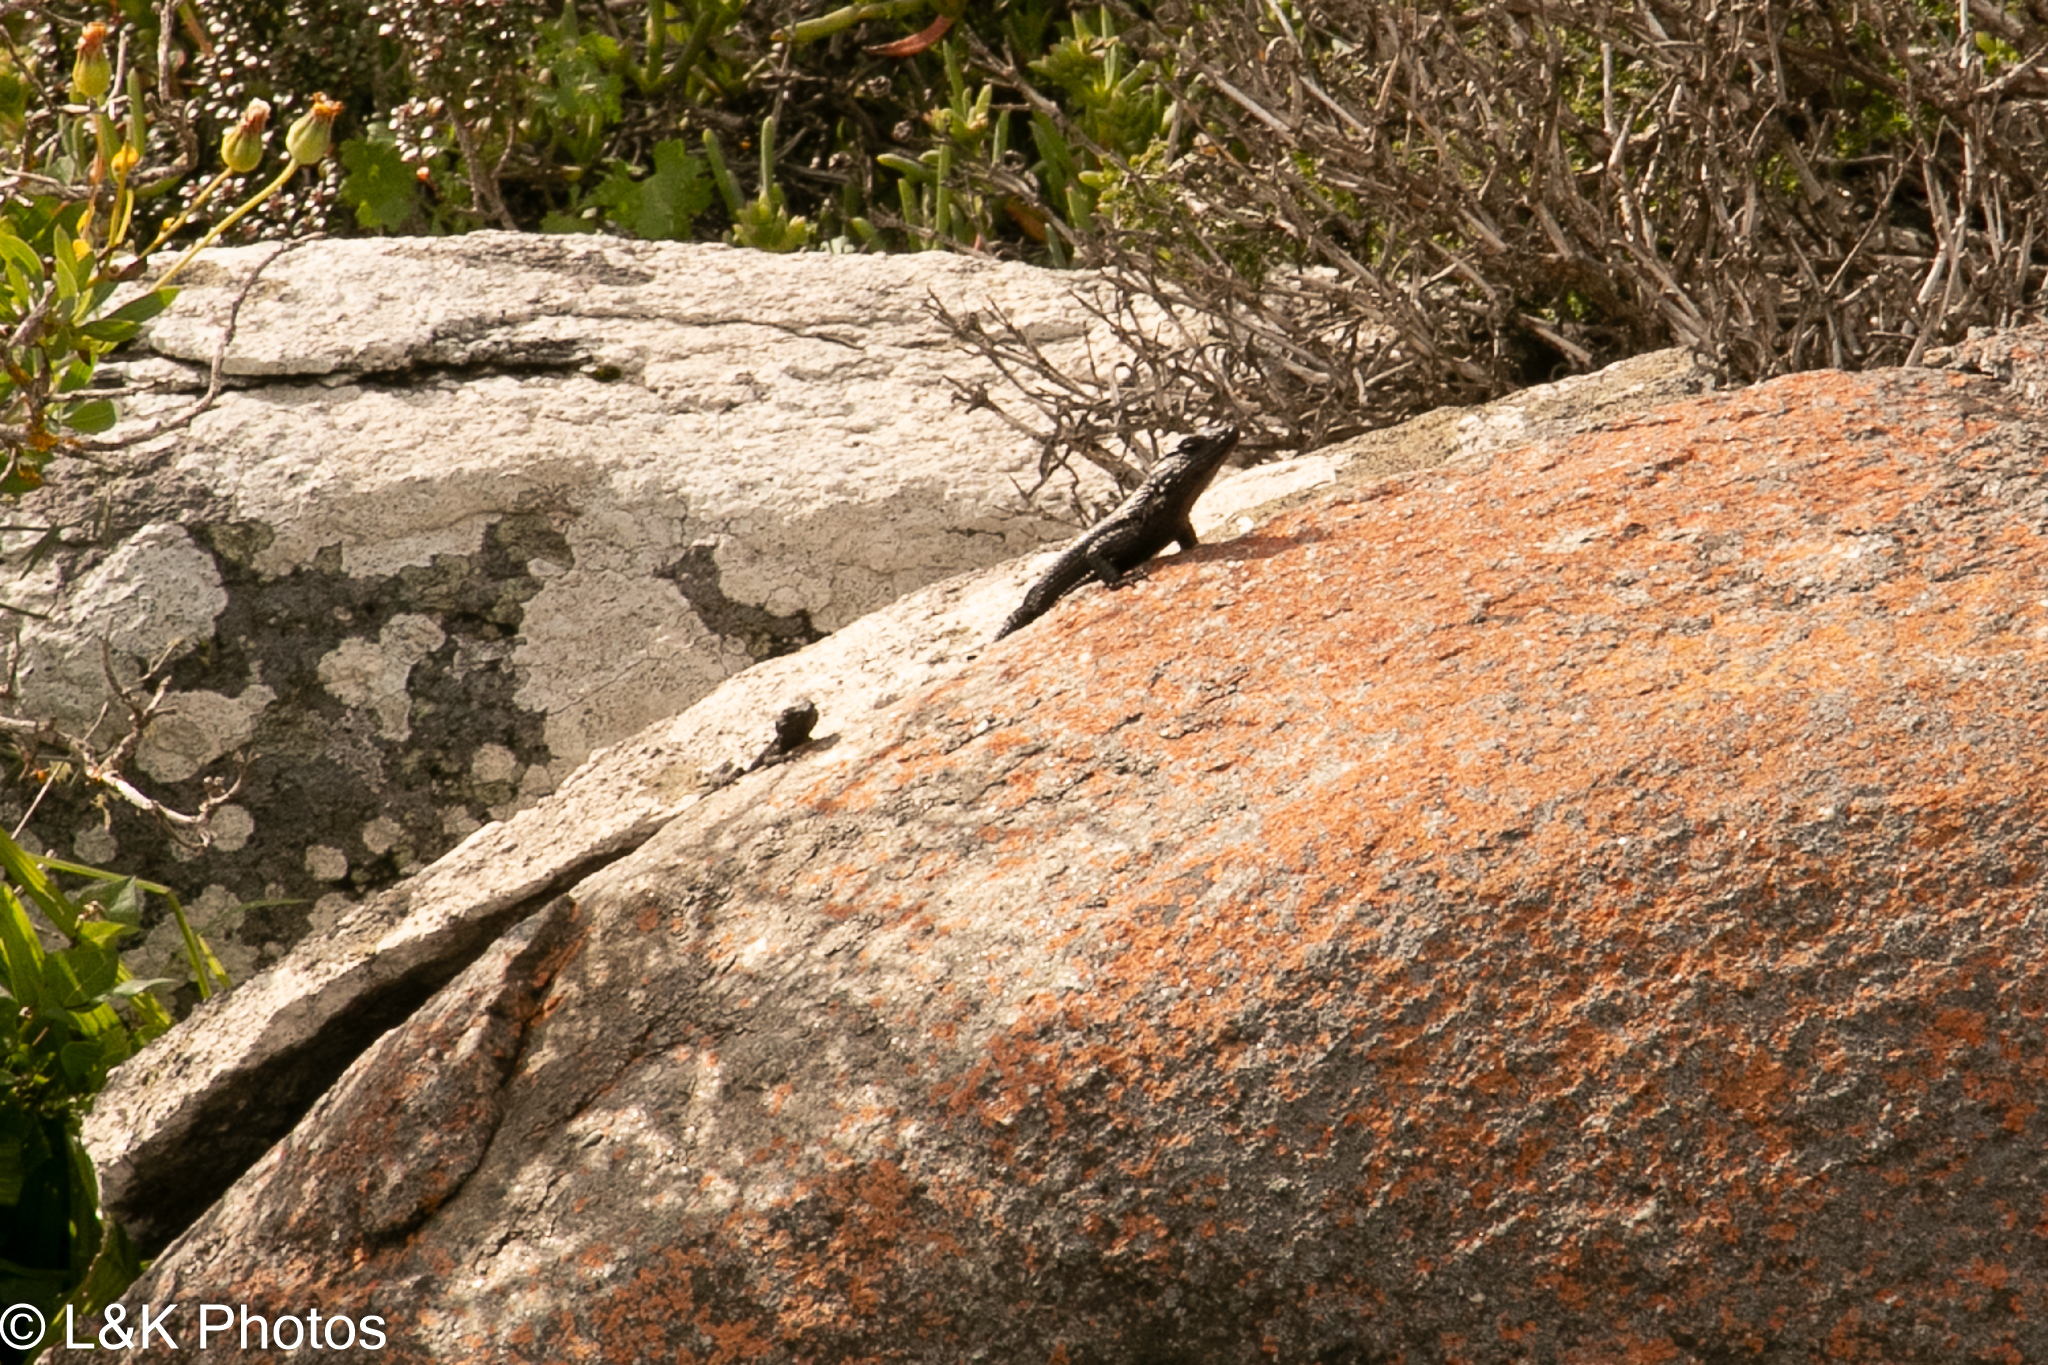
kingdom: Animalia
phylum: Chordata
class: Squamata
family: Cordylidae
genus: Karusasaurus
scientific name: Karusasaurus polyzonus
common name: Karoo girdled lizard
